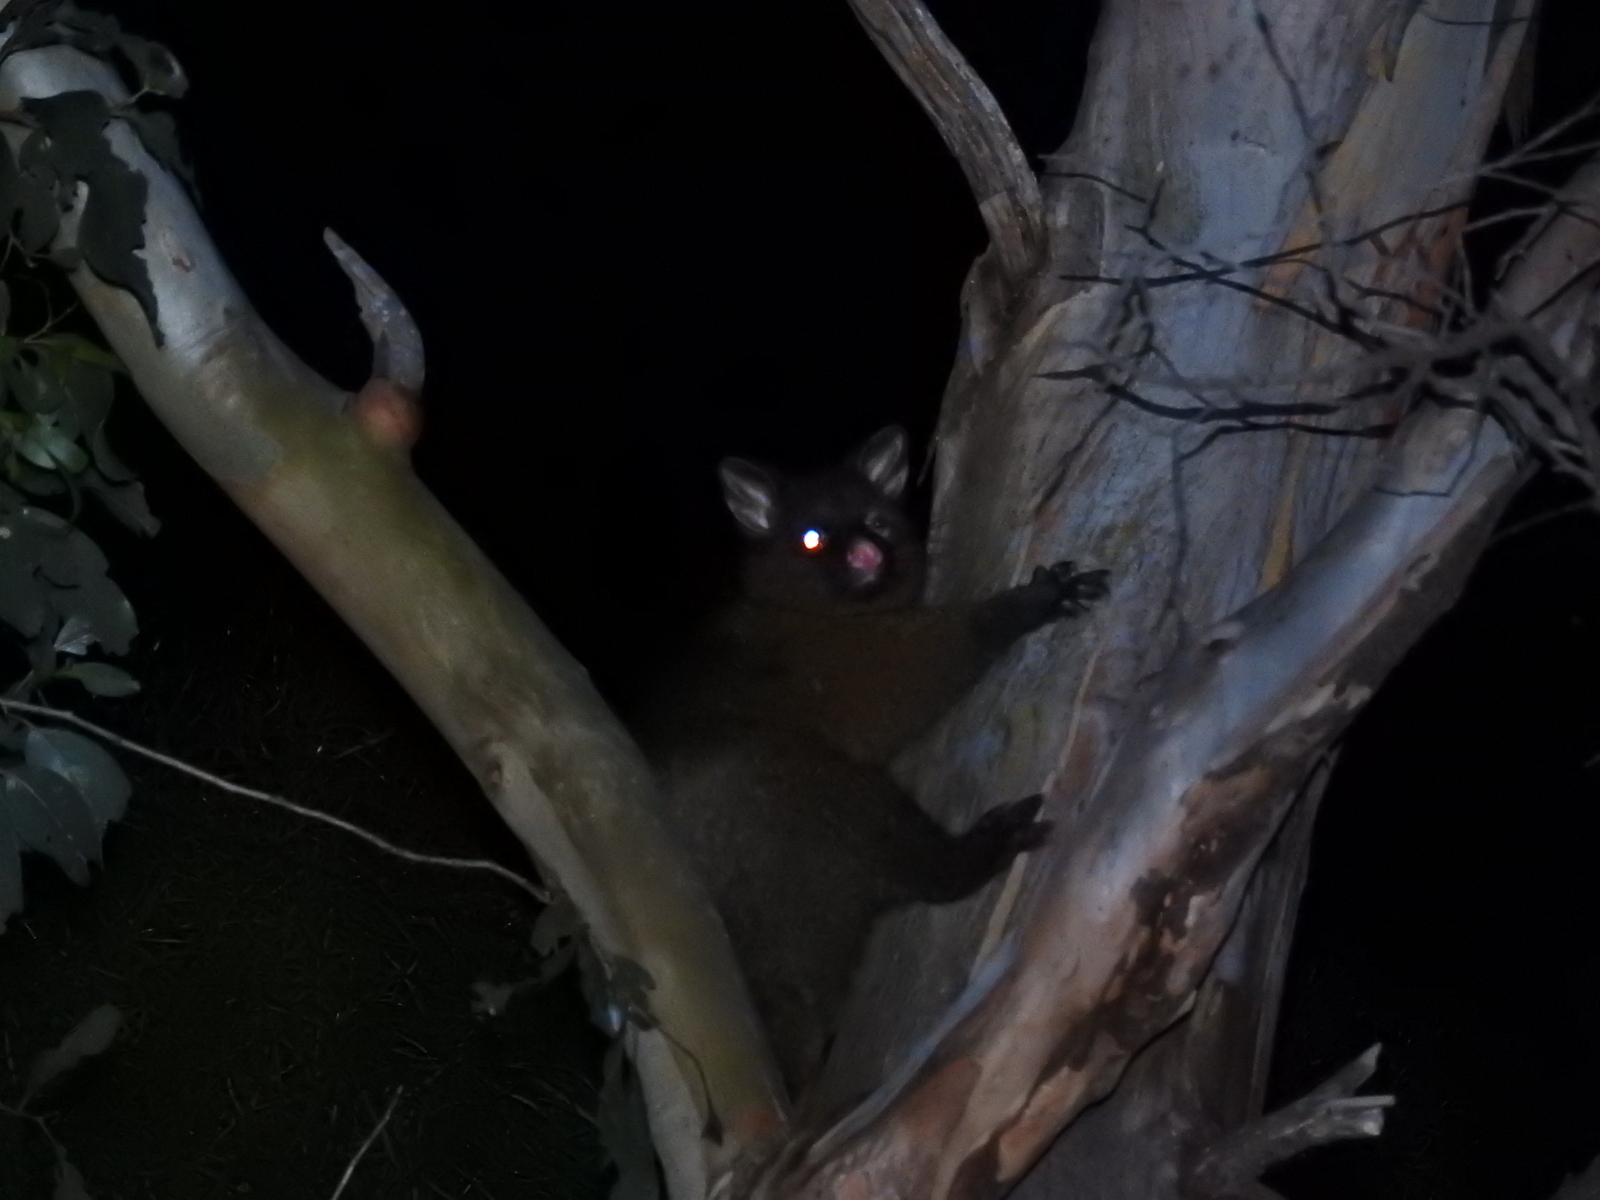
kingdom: Animalia
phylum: Chordata
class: Mammalia
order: Diprotodontia
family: Phalangeridae
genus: Trichosurus
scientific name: Trichosurus vulpecula
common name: Common brushtail
